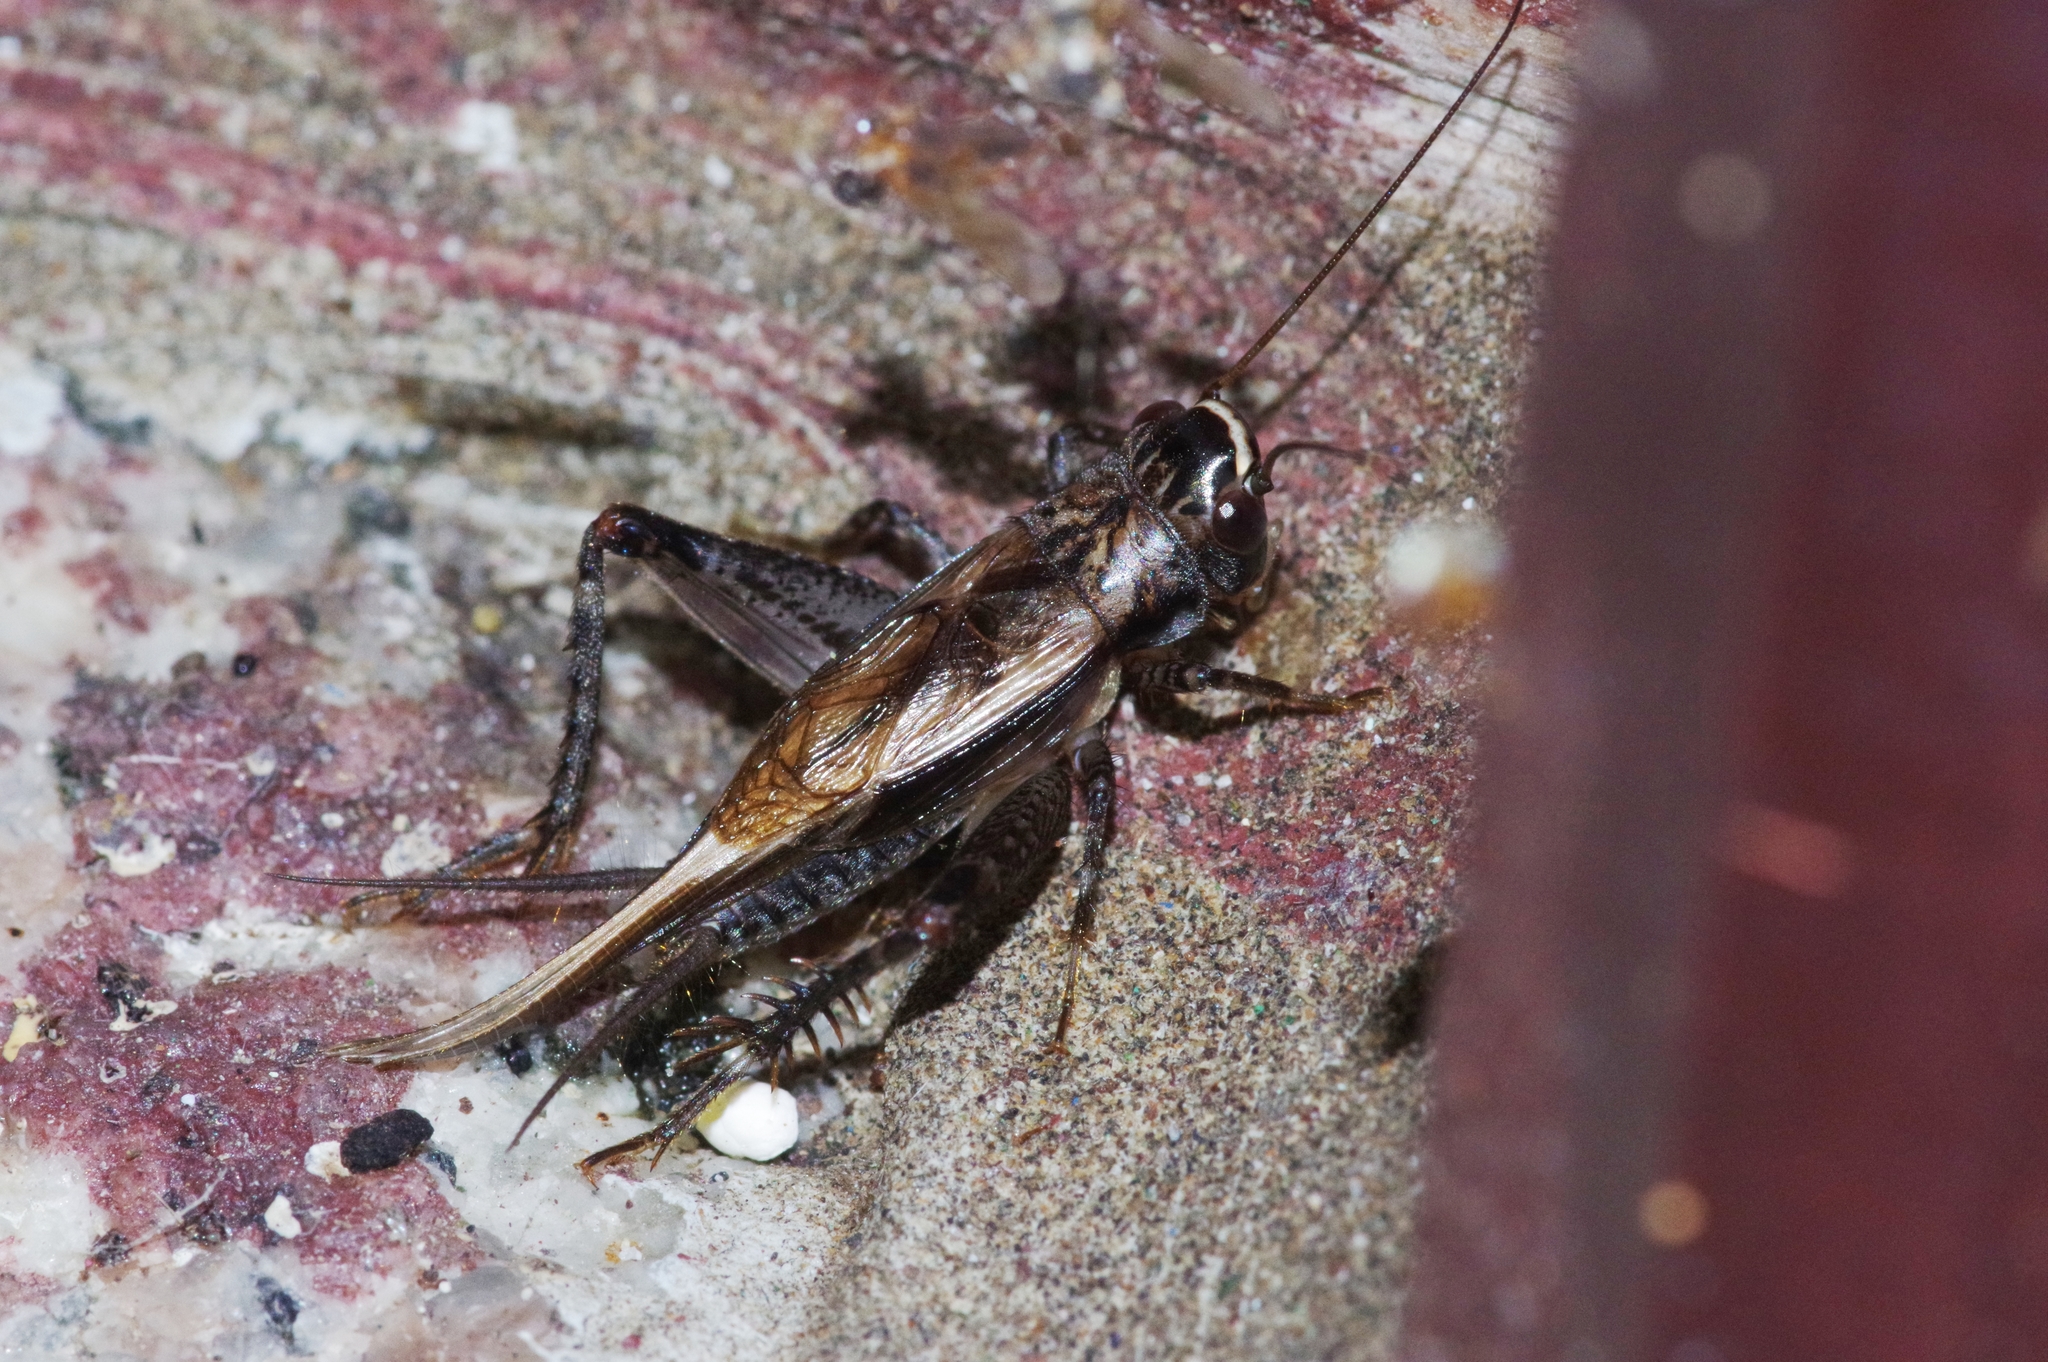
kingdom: Animalia
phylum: Arthropoda
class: Insecta
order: Orthoptera
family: Gryllidae
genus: Loxoblemmus
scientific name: Loxoblemmus equestris
